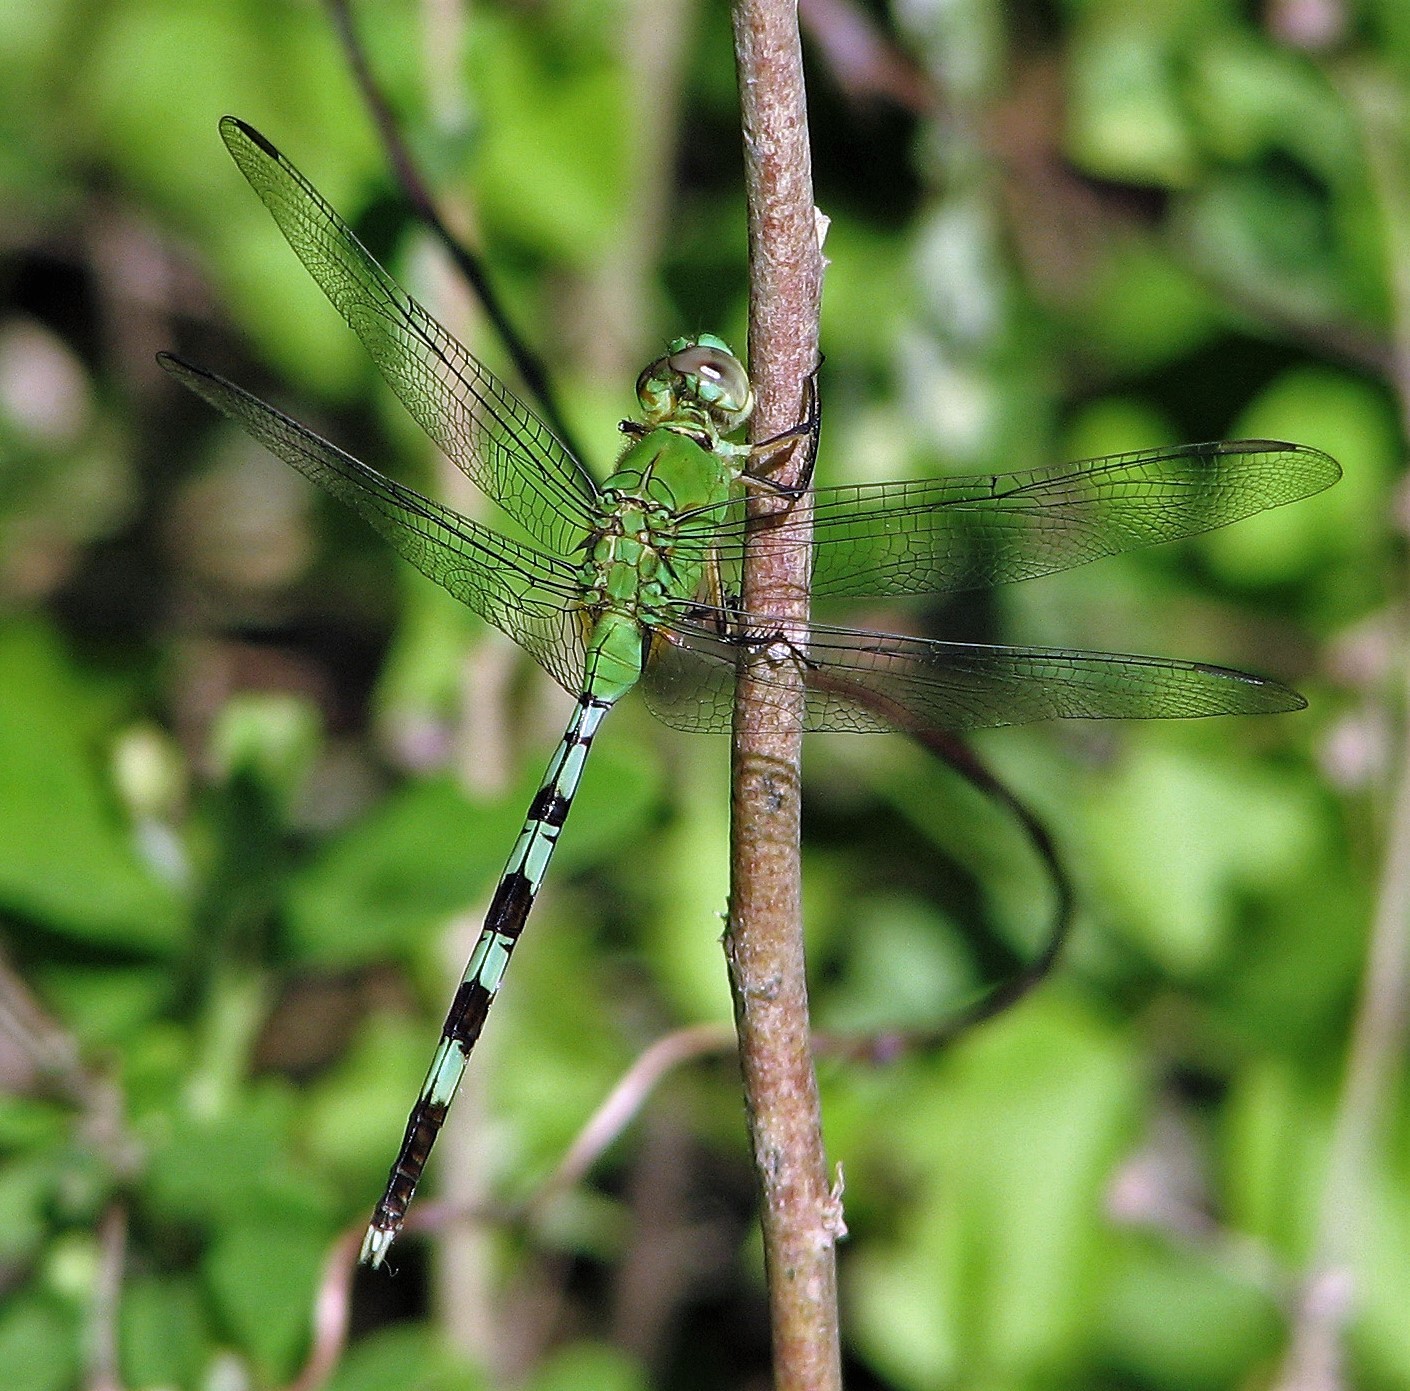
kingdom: Animalia
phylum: Arthropoda
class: Insecta
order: Odonata
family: Libellulidae
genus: Erythemis
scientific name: Erythemis vesiculosa
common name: Great pondhawk
